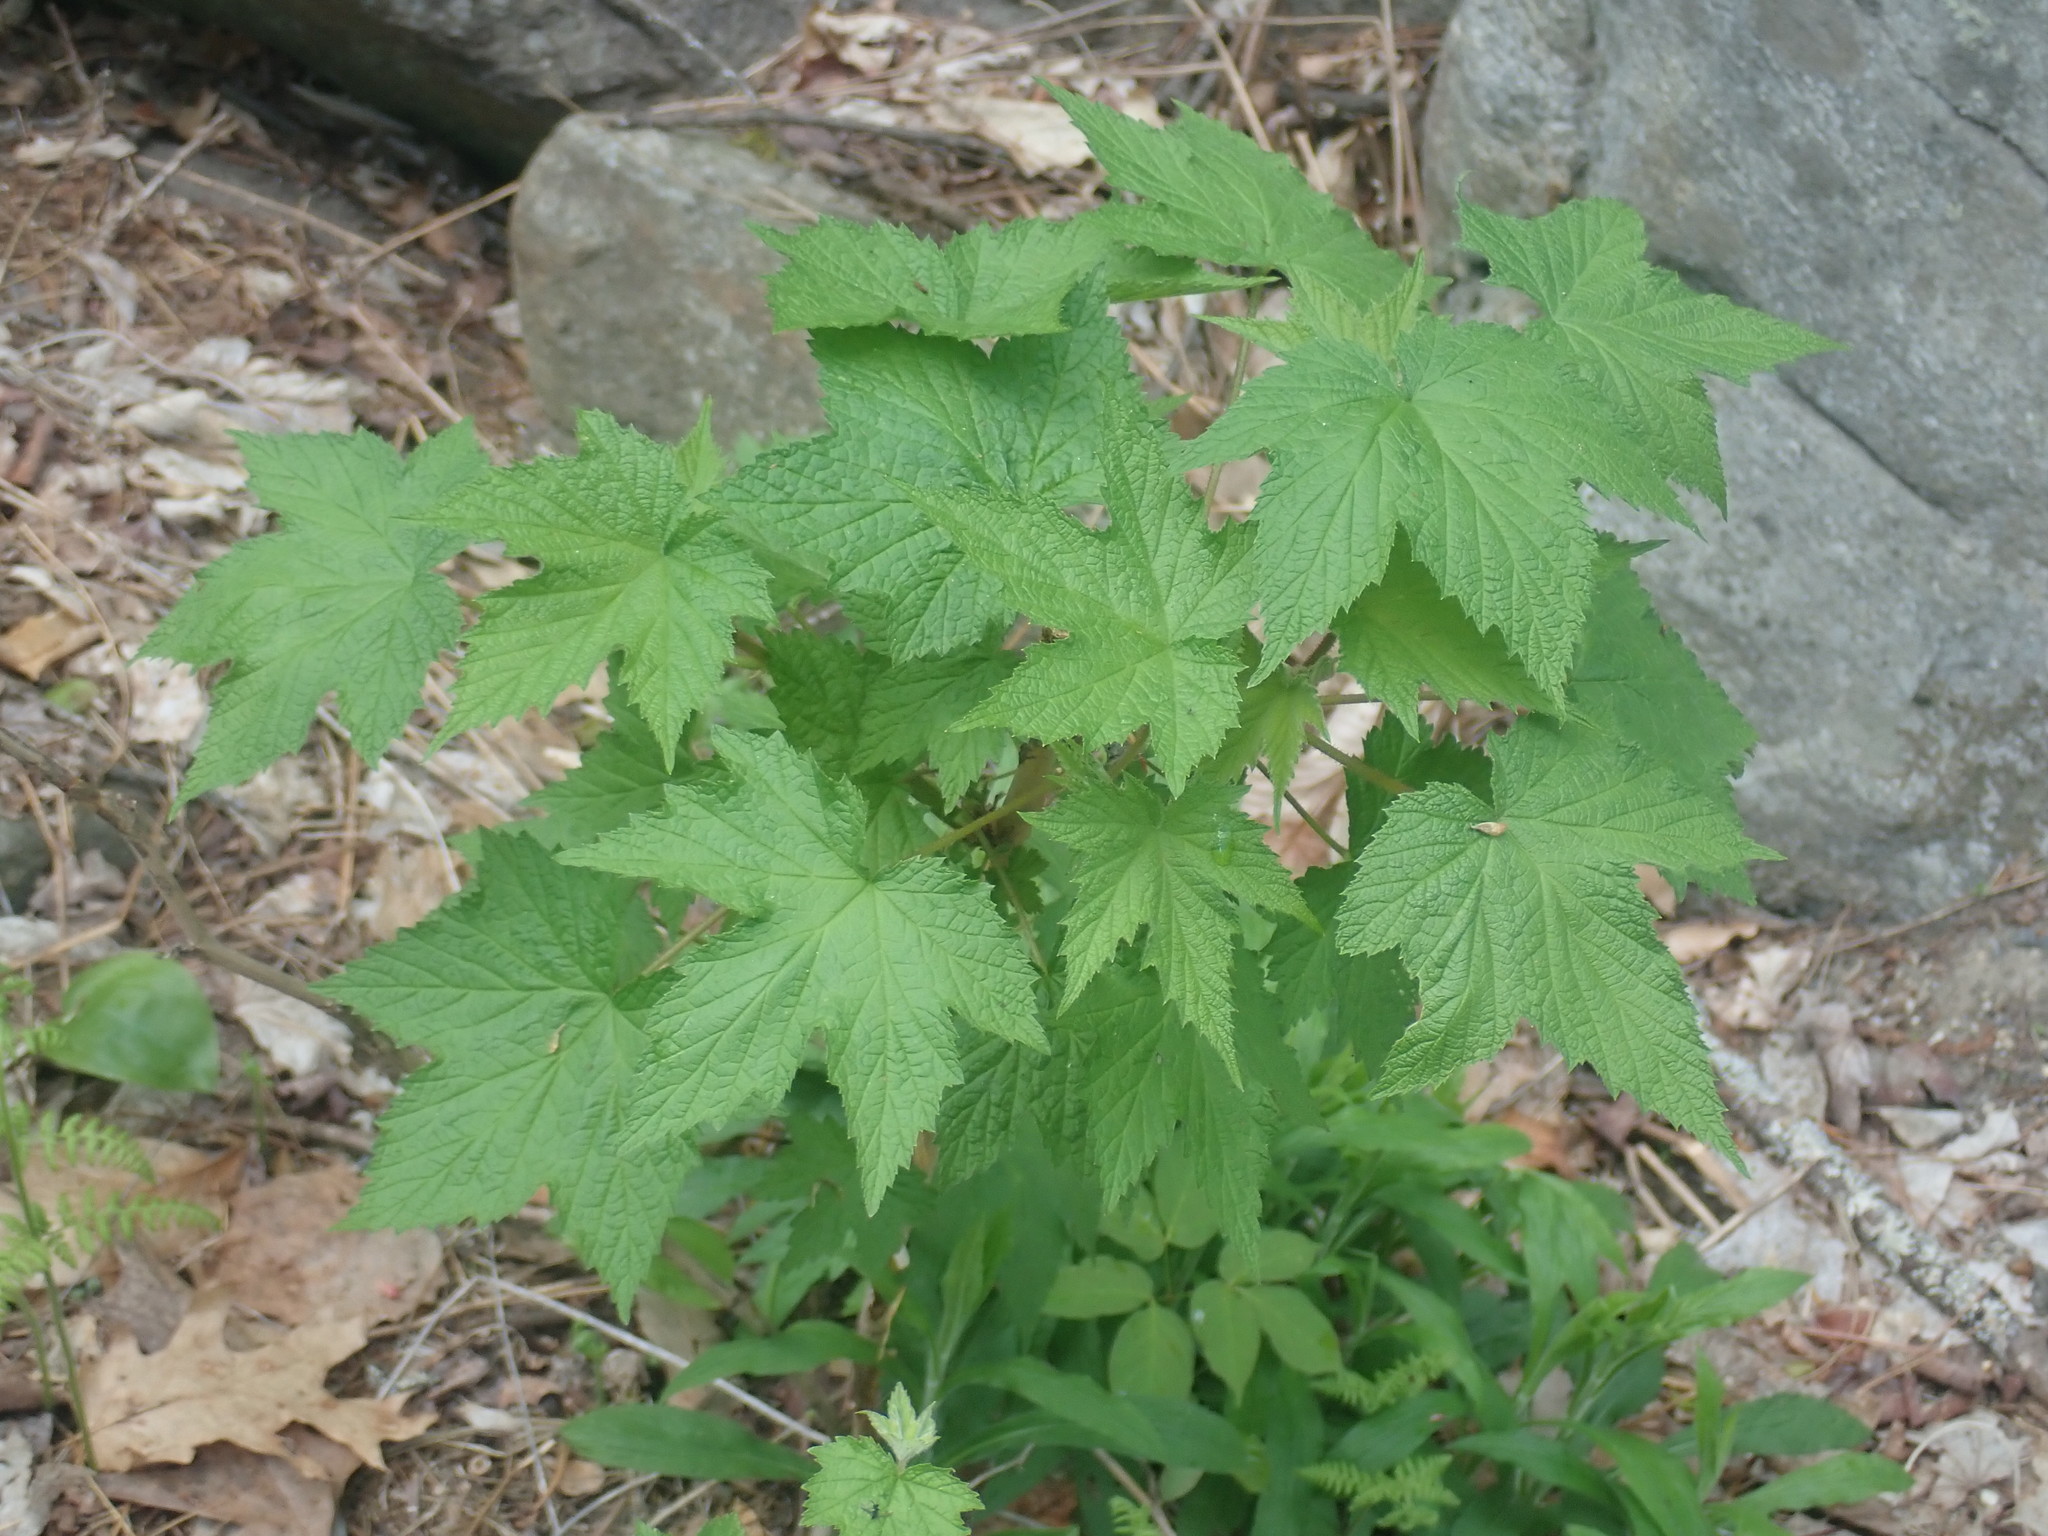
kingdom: Plantae
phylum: Tracheophyta
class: Magnoliopsida
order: Rosales
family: Rosaceae
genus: Rubus
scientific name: Rubus odoratus
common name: Purple-flowered raspberry
